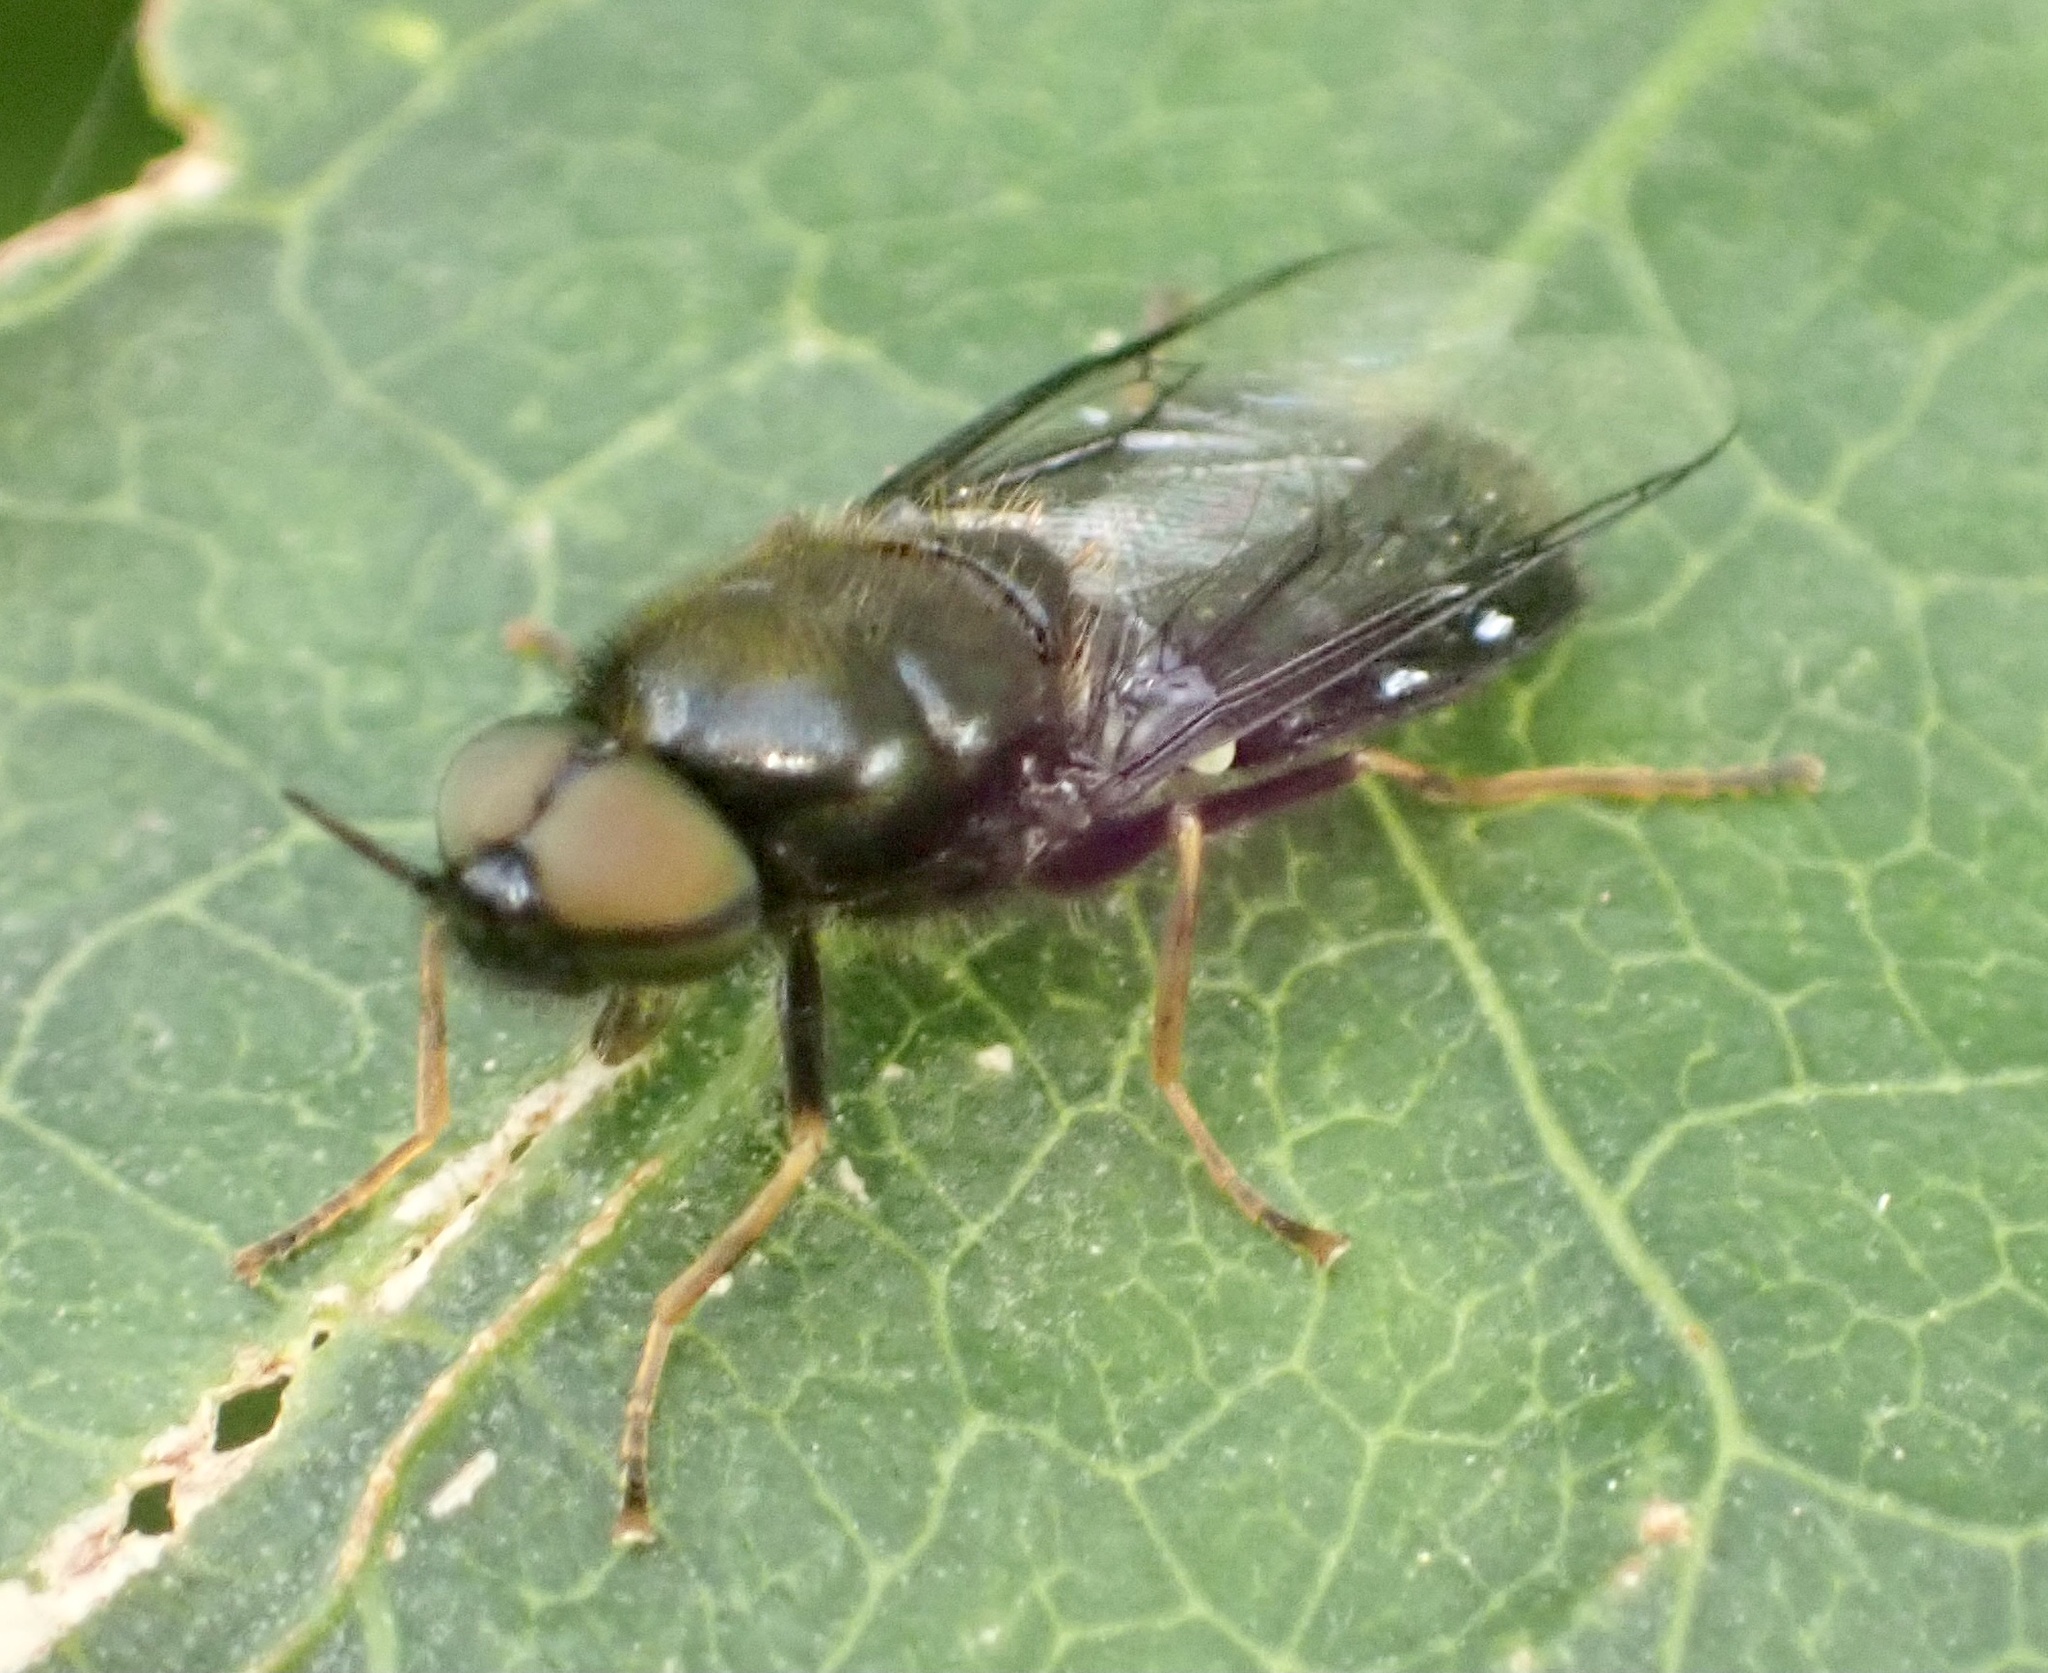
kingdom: Animalia
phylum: Arthropoda
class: Insecta
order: Diptera
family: Stratiomyidae
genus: Odontomyia
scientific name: Odontomyia tigrina
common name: Black colonel
